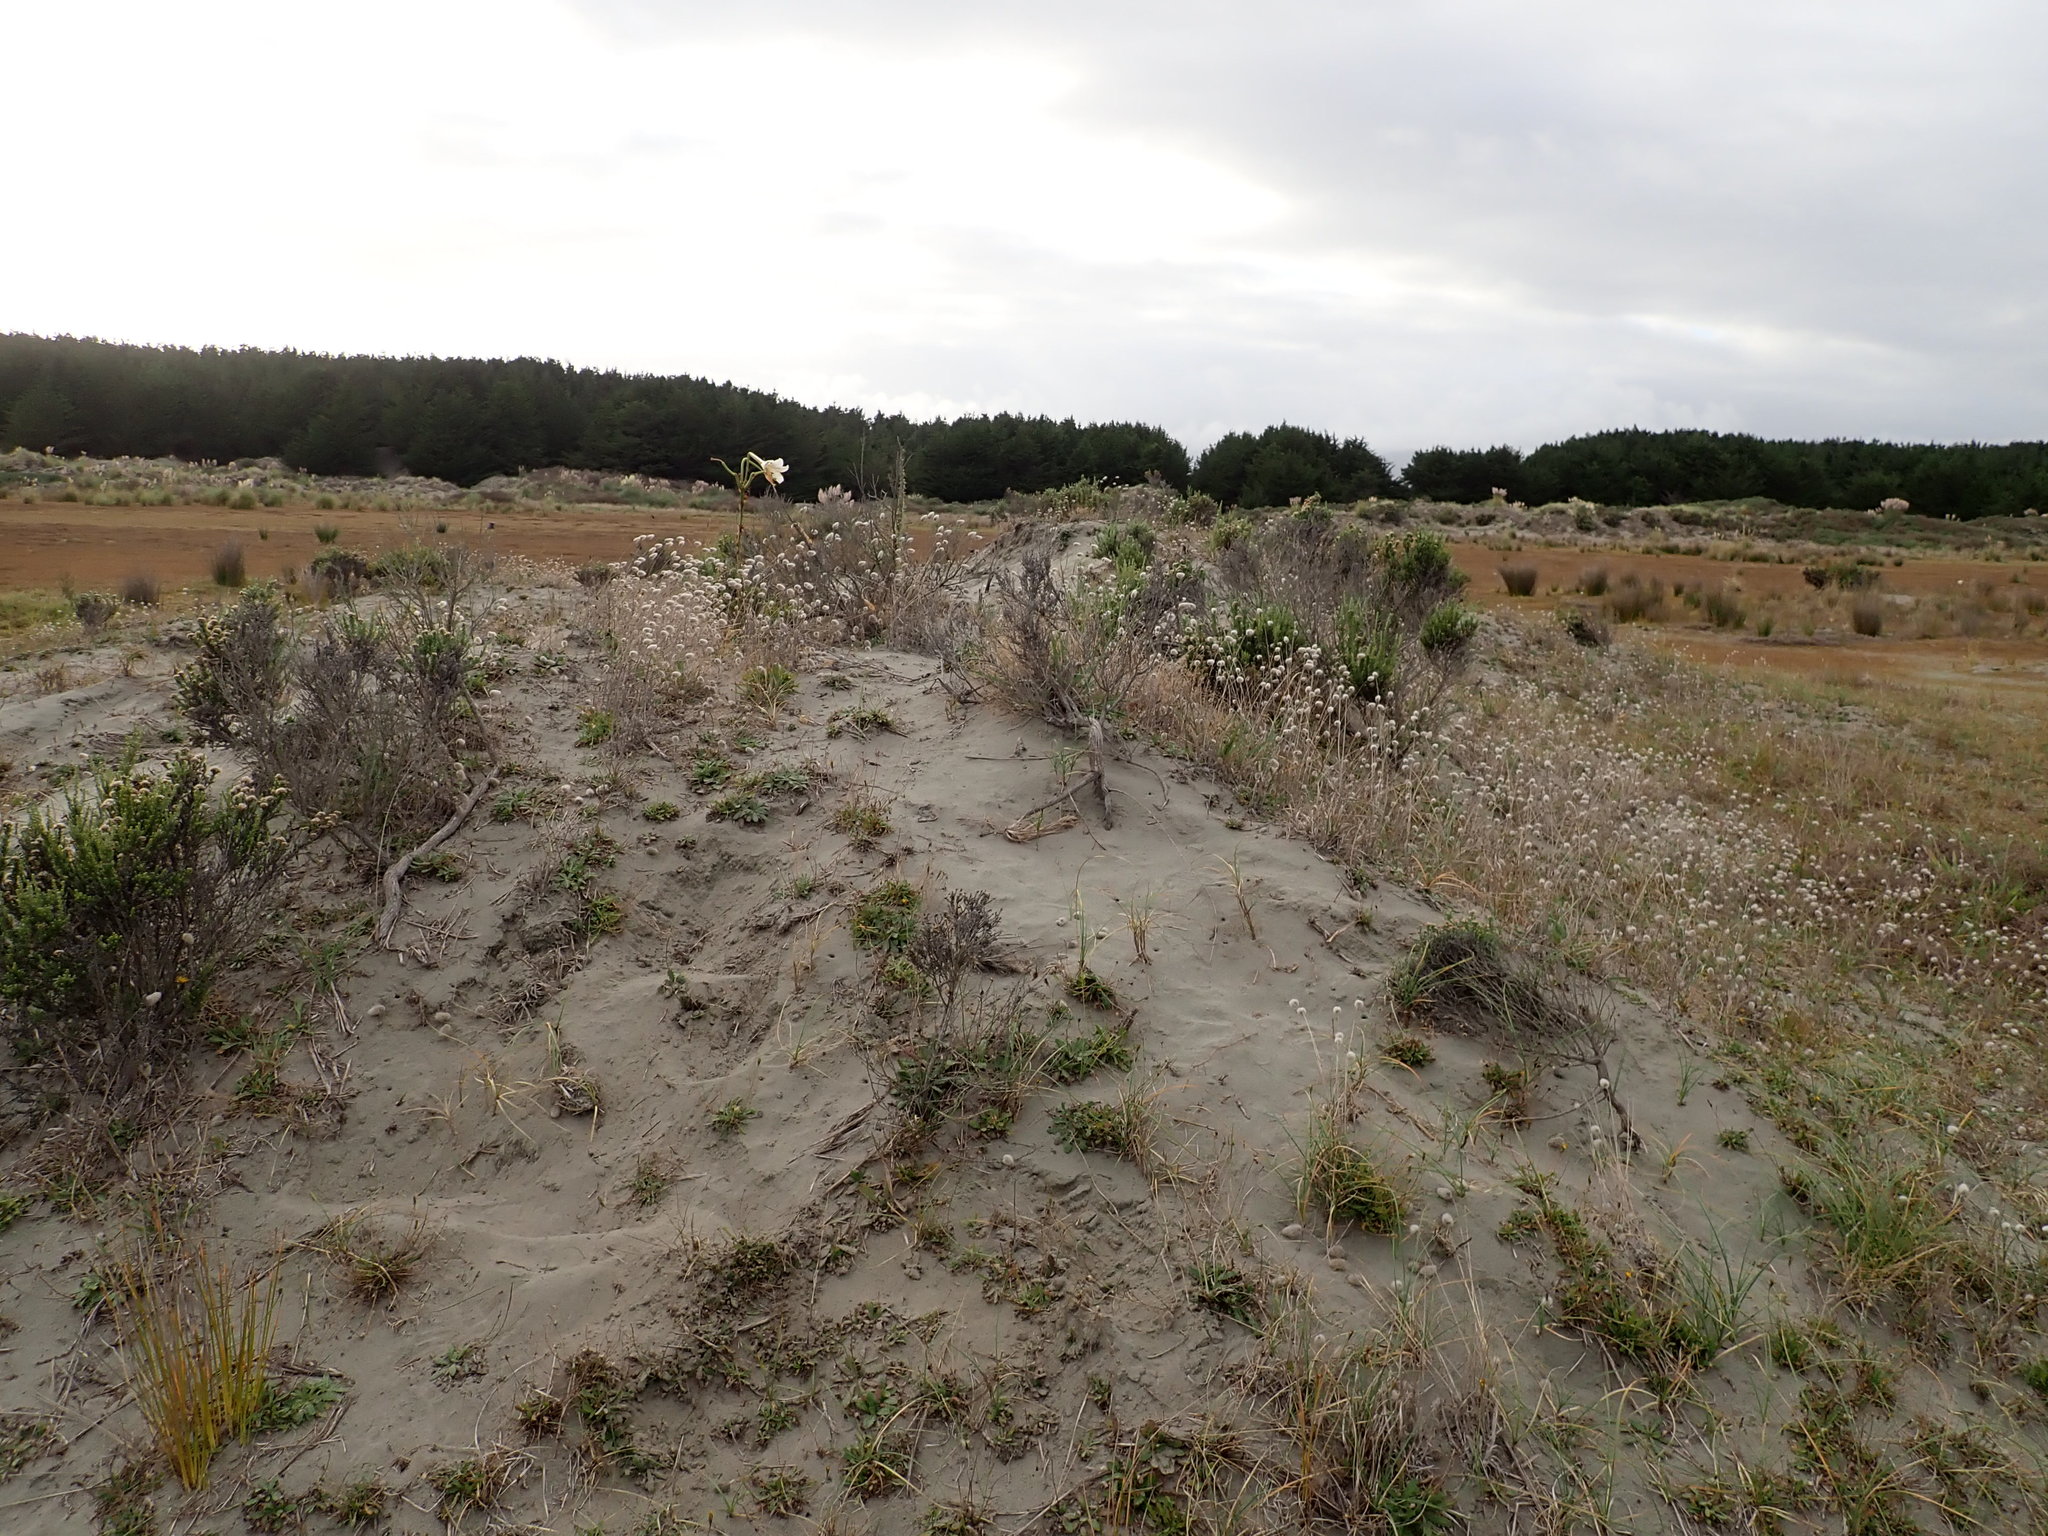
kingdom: Plantae
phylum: Tracheophyta
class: Liliopsida
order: Liliales
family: Liliaceae
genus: Lilium
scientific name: Lilium formosanum
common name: Formosa lily
